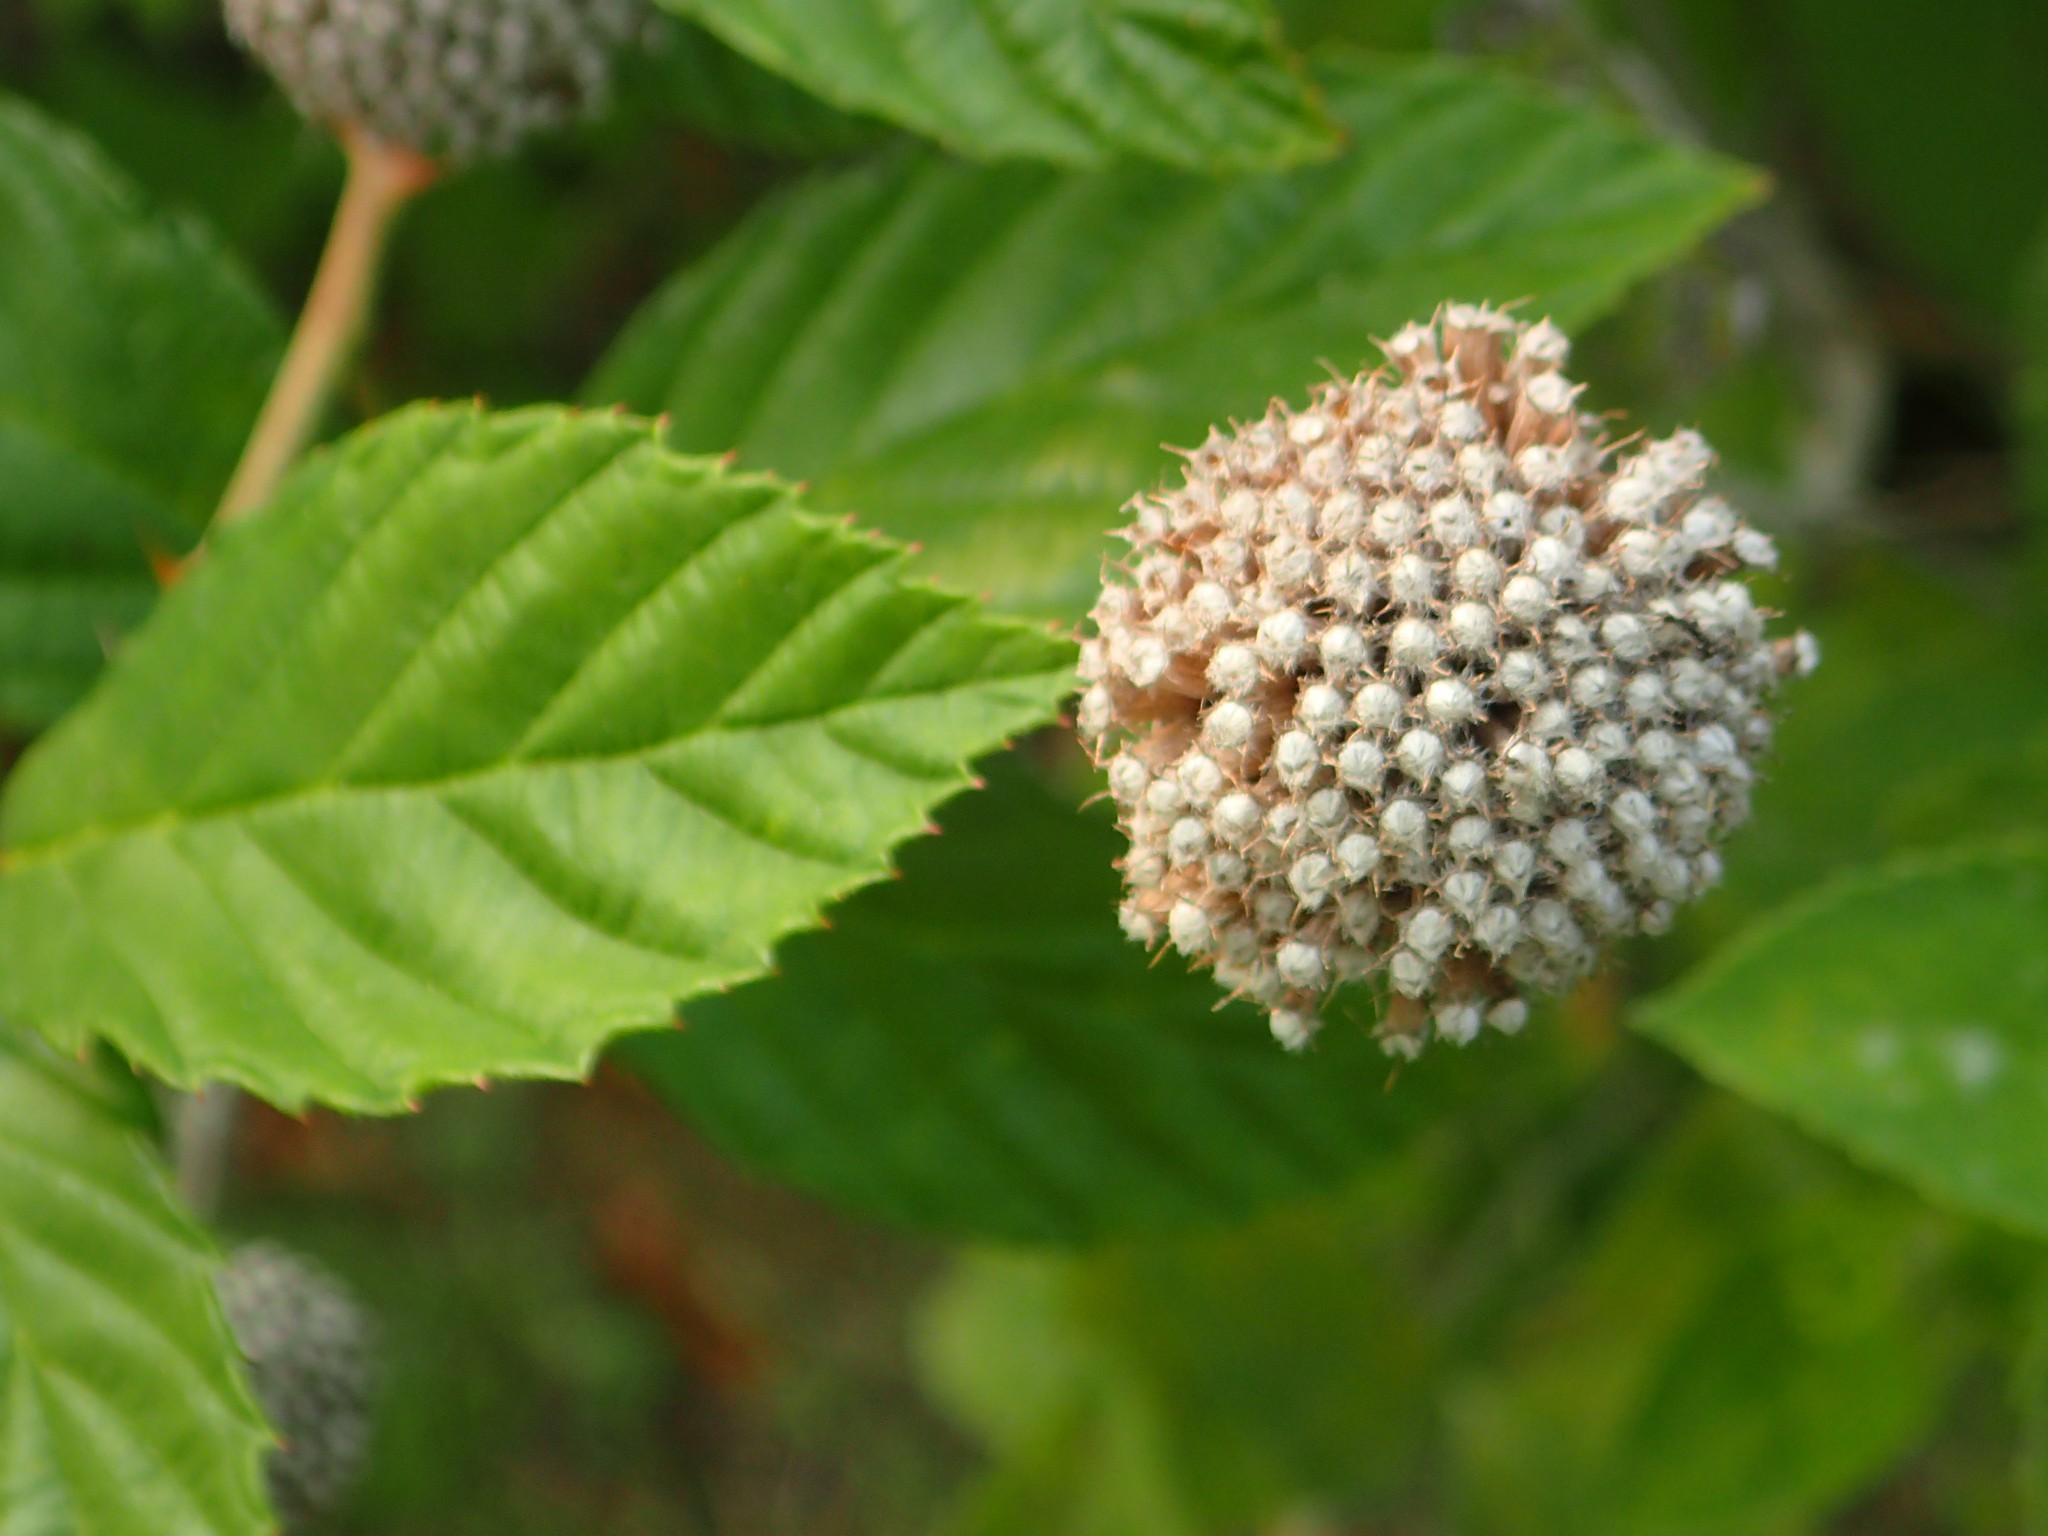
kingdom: Plantae
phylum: Tracheophyta
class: Magnoliopsida
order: Gentianales
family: Rubiaceae
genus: Cephalanthus
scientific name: Cephalanthus occidentalis
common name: Button-willow
